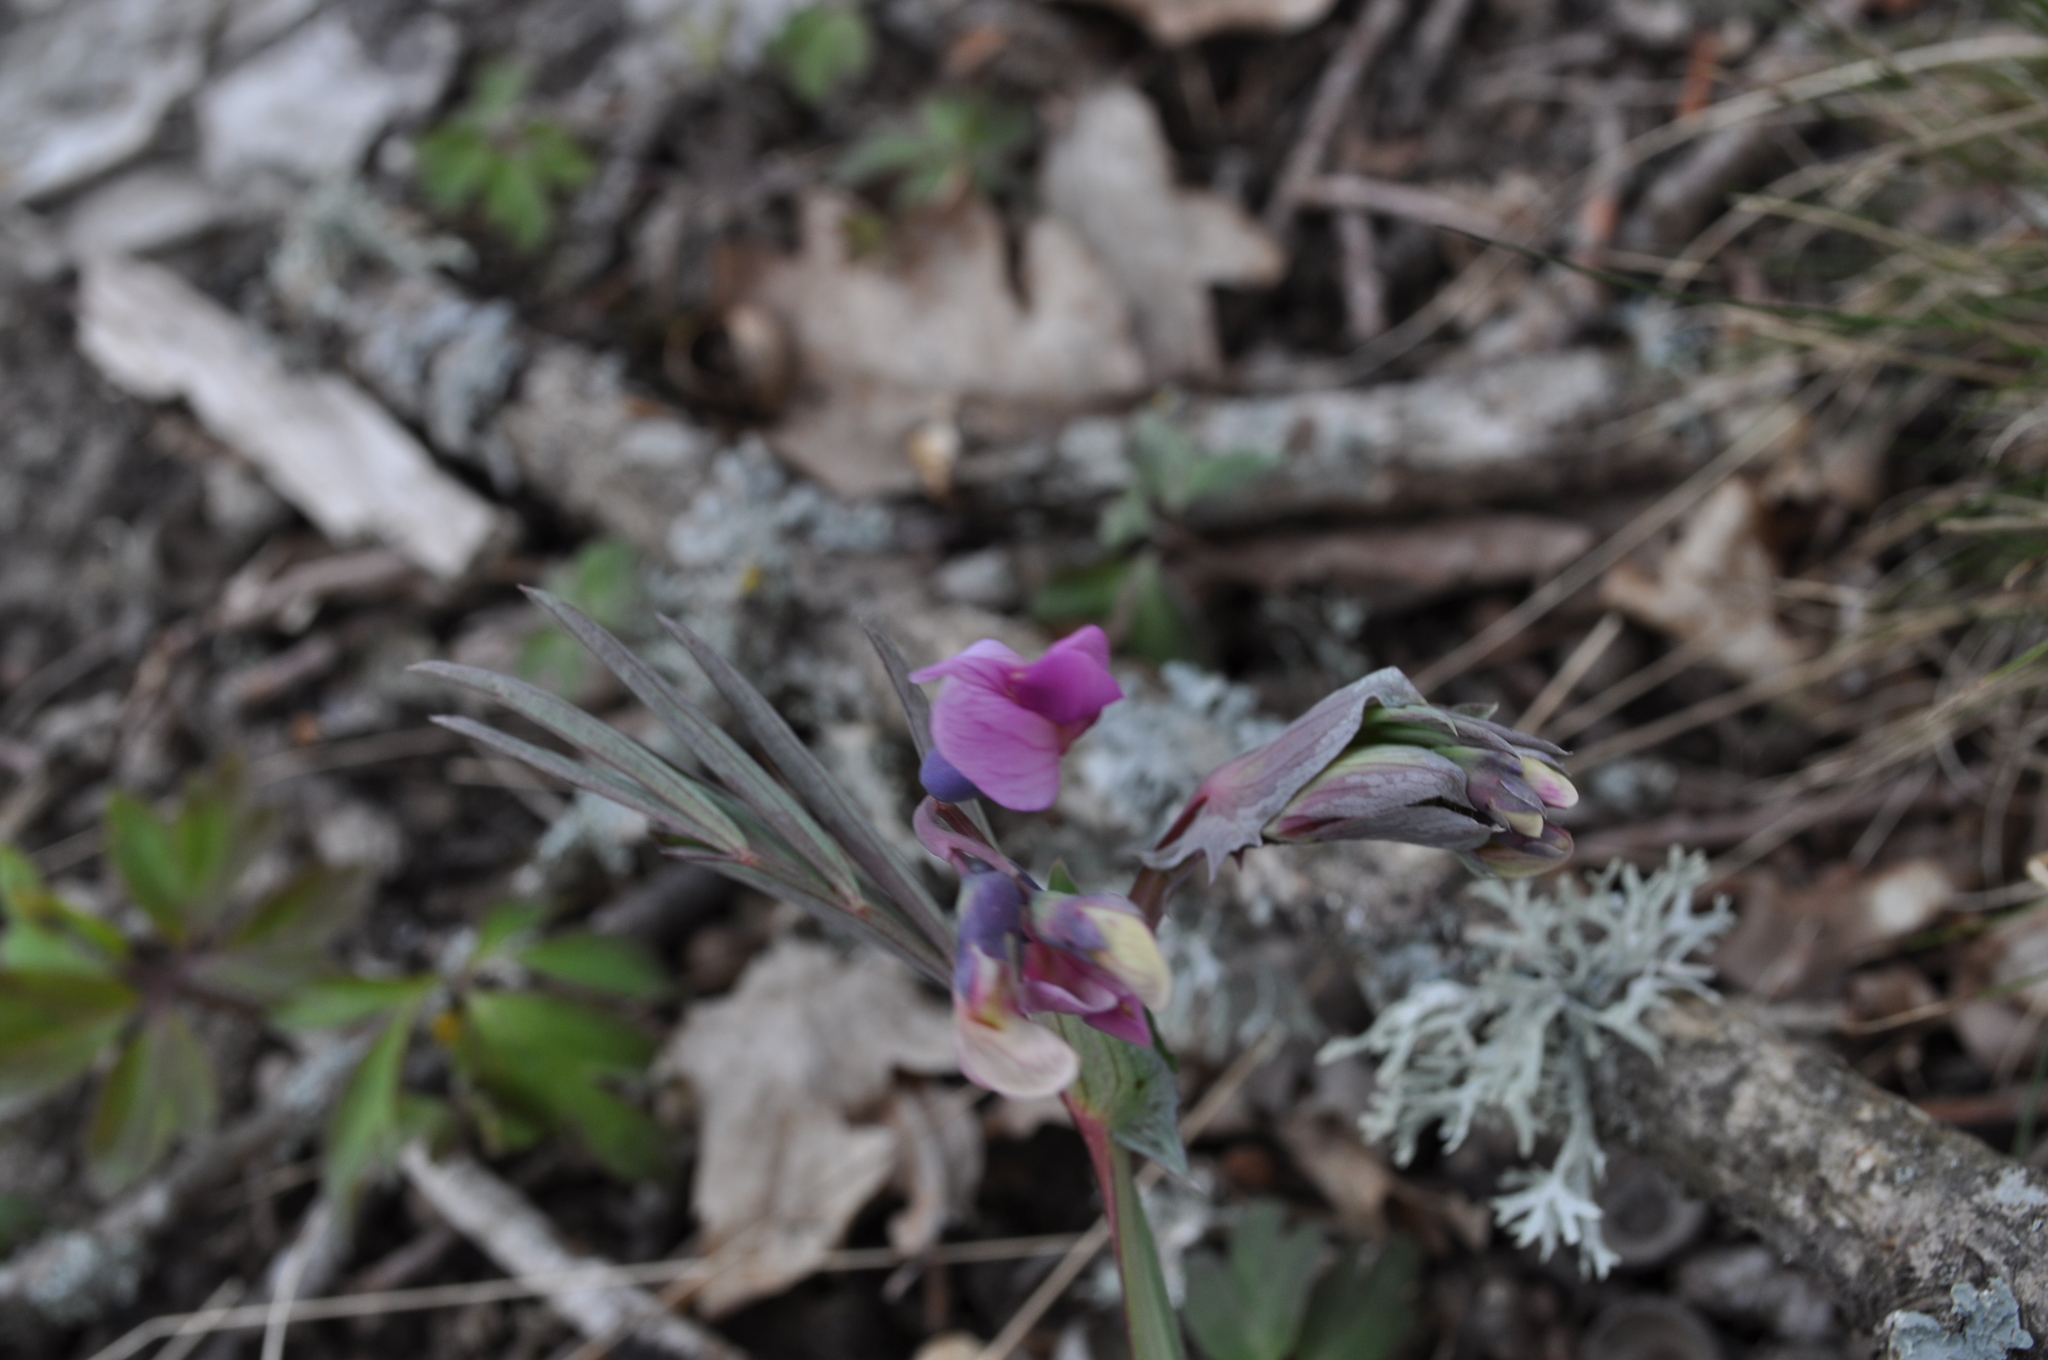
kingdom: Plantae
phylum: Tracheophyta
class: Magnoliopsida
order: Fabales
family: Fabaceae
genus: Lathyrus
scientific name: Lathyrus linifolius
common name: Bitter-vetch
